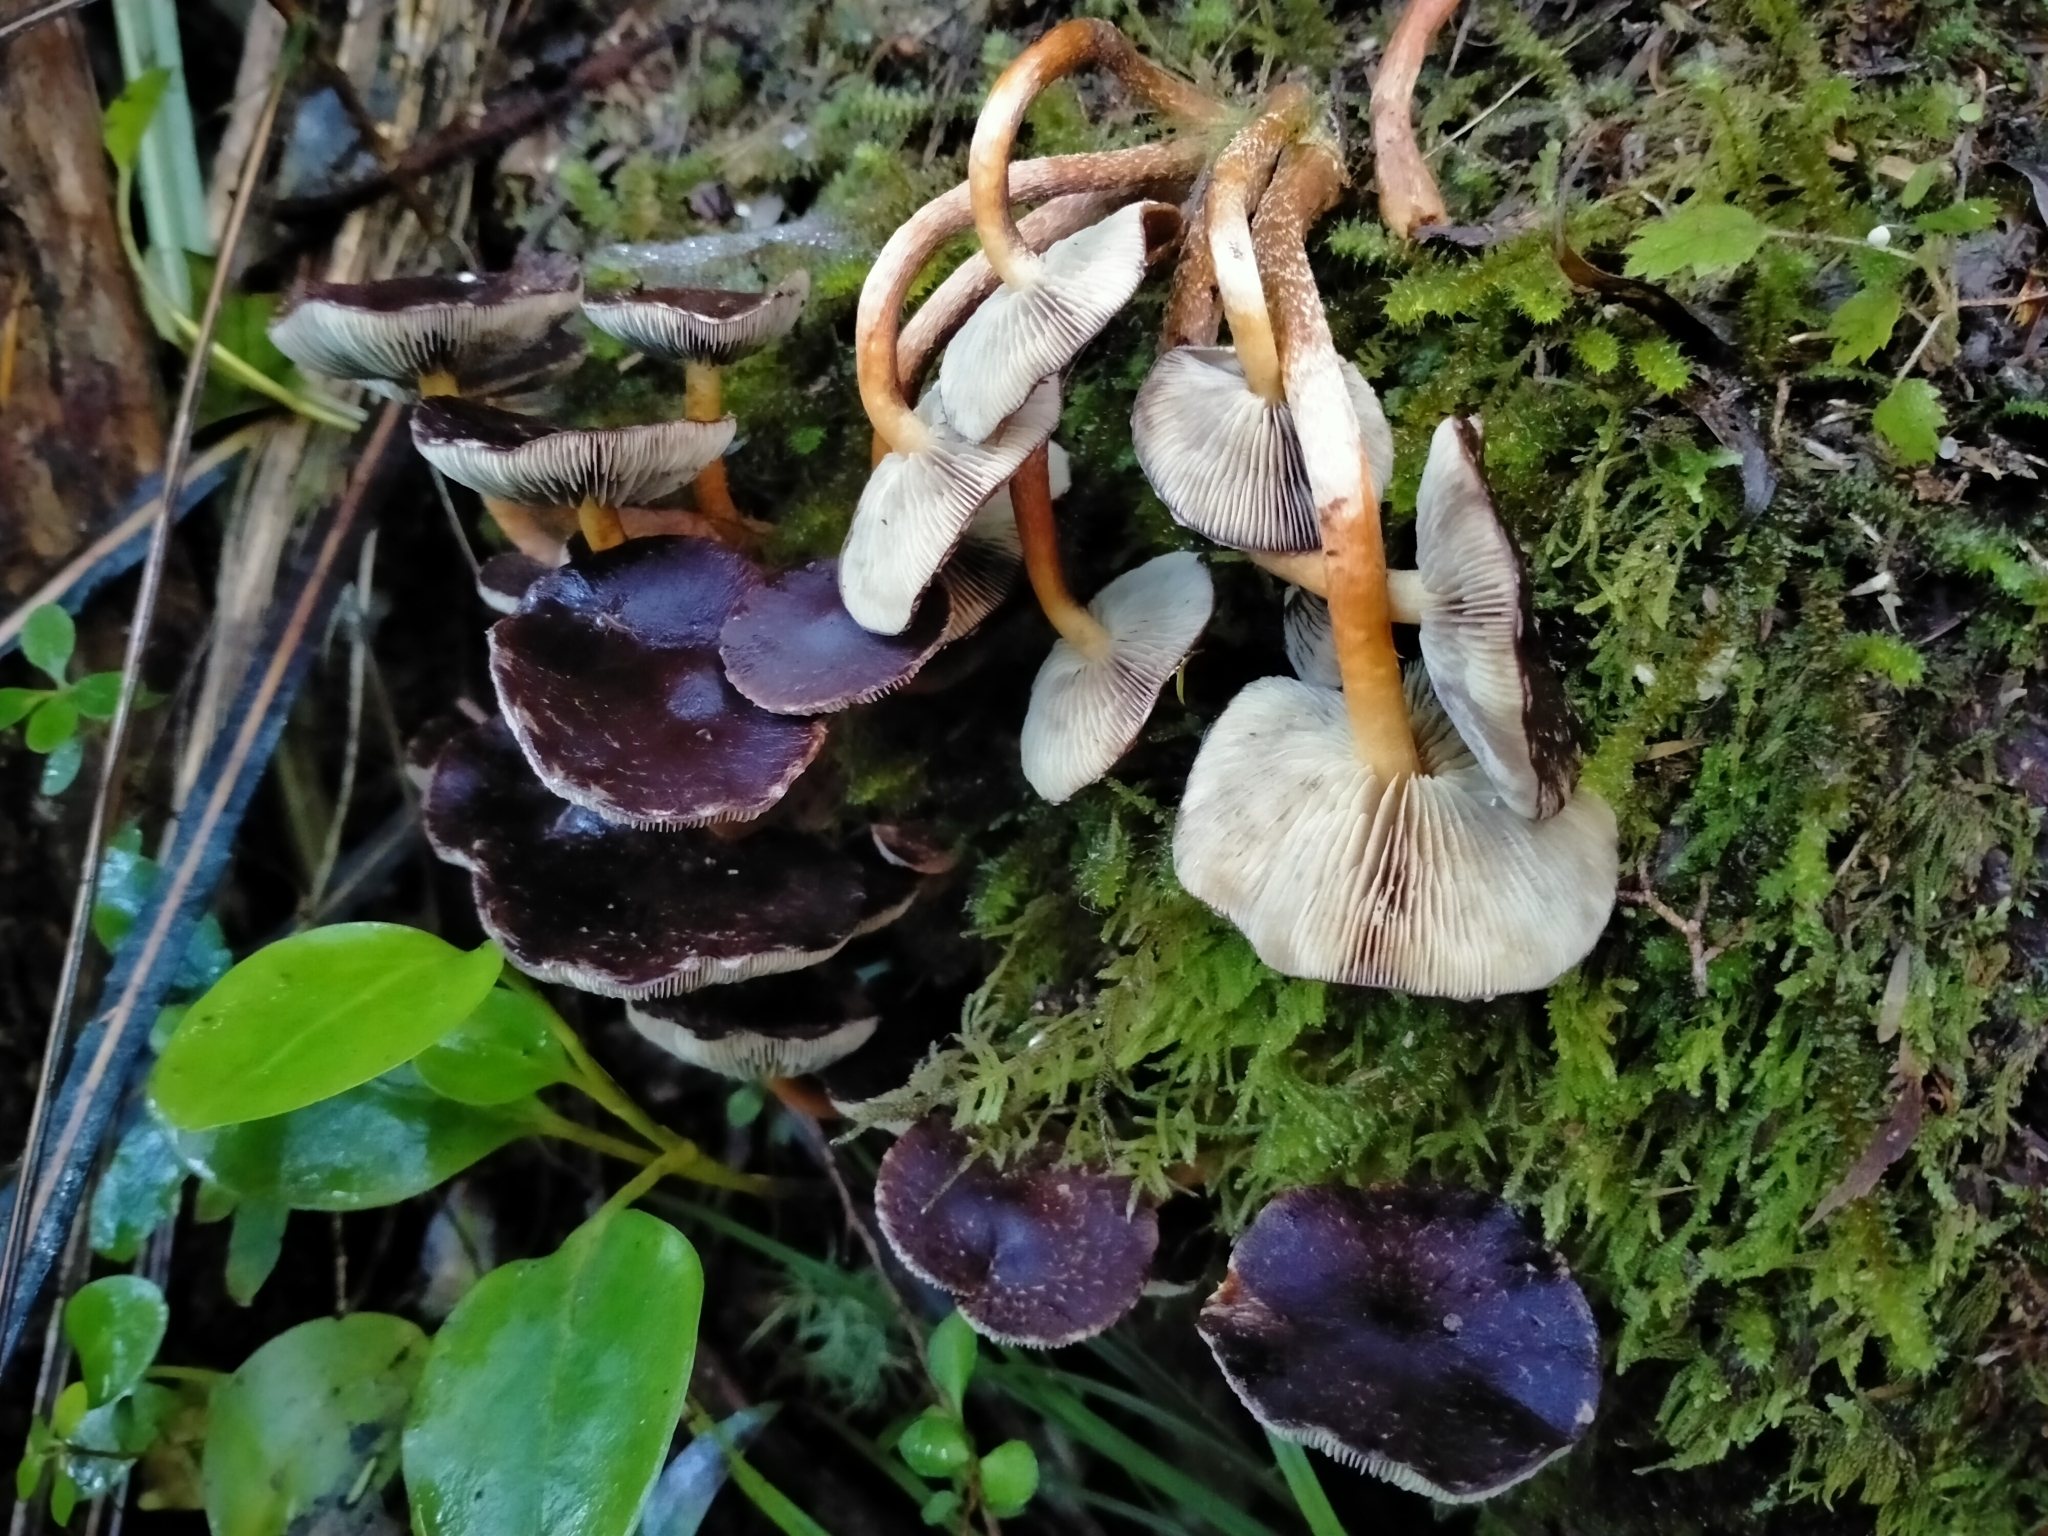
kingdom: Fungi
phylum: Basidiomycota
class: Agaricomycetes
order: Agaricales
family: Strophariaceae
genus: Hypholoma
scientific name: Hypholoma brunneum
